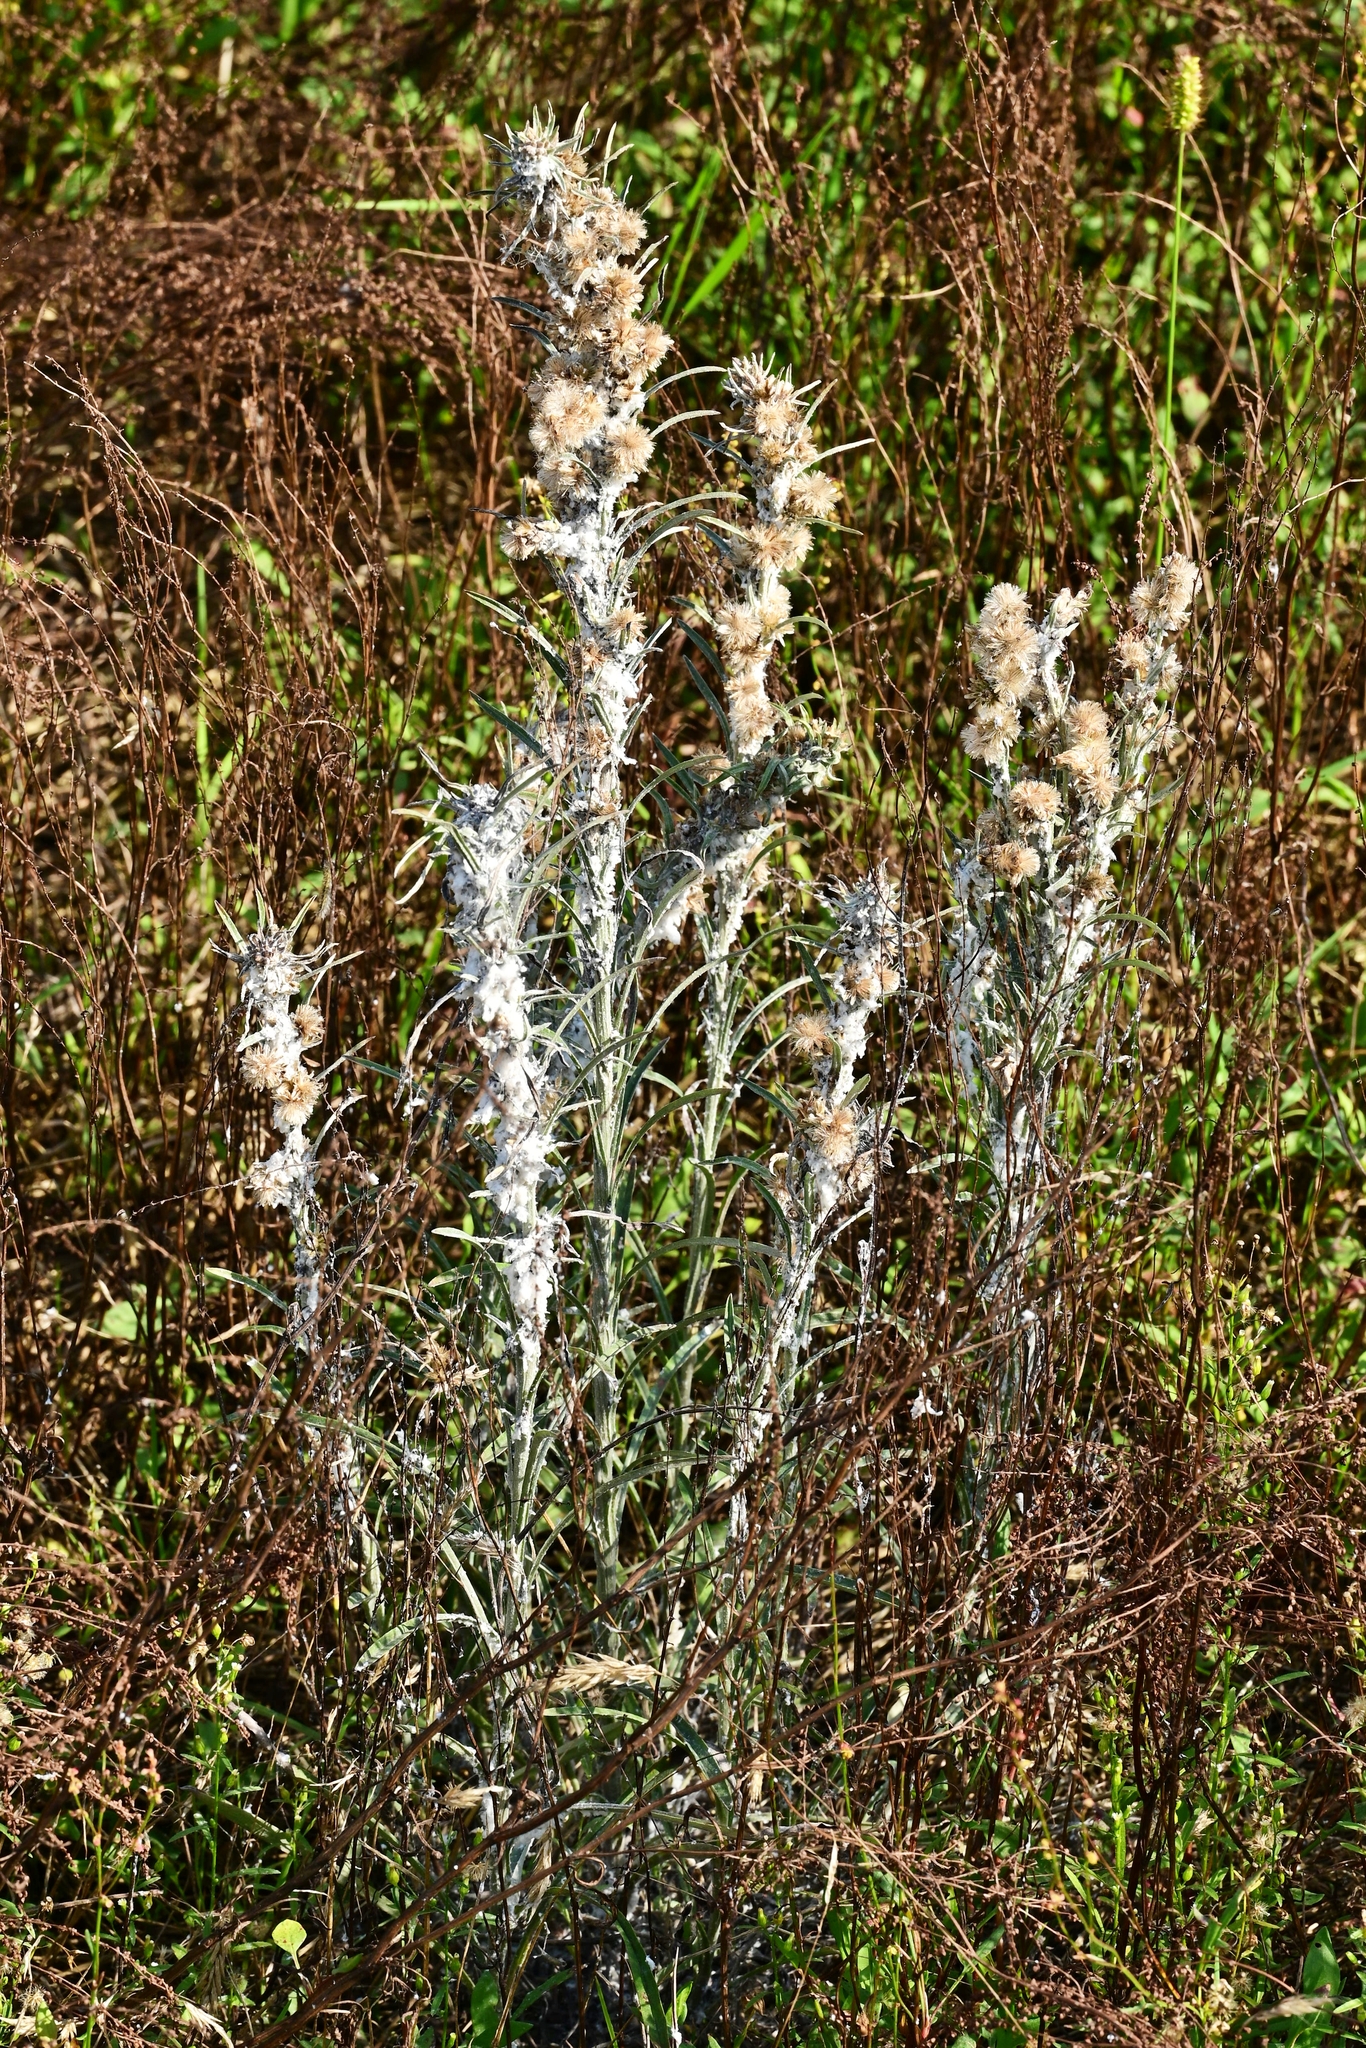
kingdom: Plantae
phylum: Tracheophyta
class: Magnoliopsida
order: Asterales
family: Asteraceae
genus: Omalotheca
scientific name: Omalotheca sylvatica
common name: Heath cudweed
